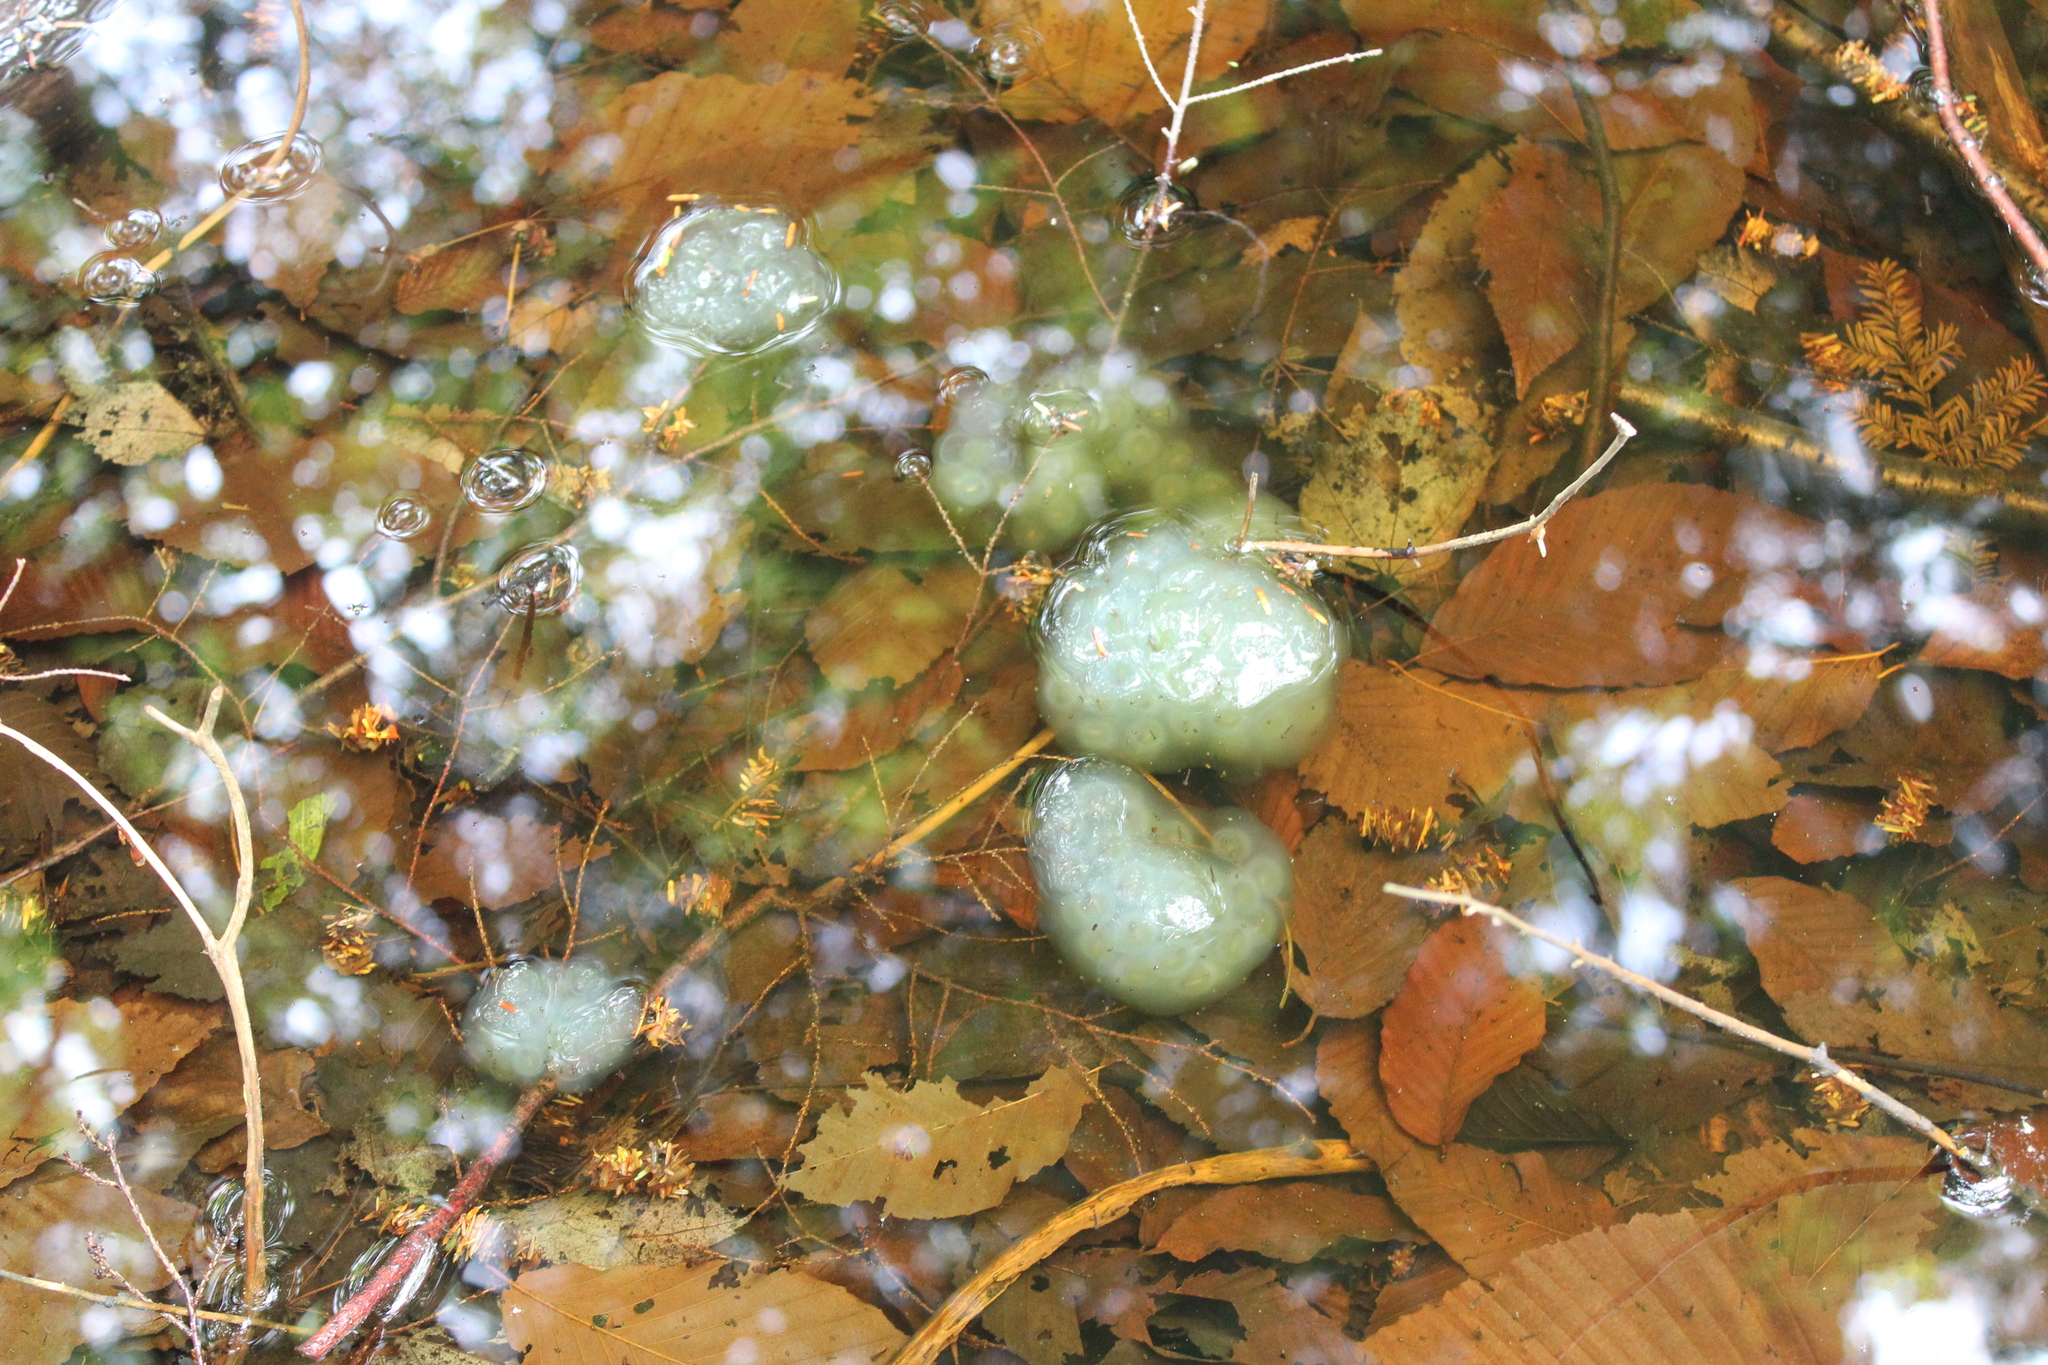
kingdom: Animalia
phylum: Chordata
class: Amphibia
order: Caudata
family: Ambystomatidae
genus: Ambystoma
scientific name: Ambystoma maculatum
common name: Spotted salamander
